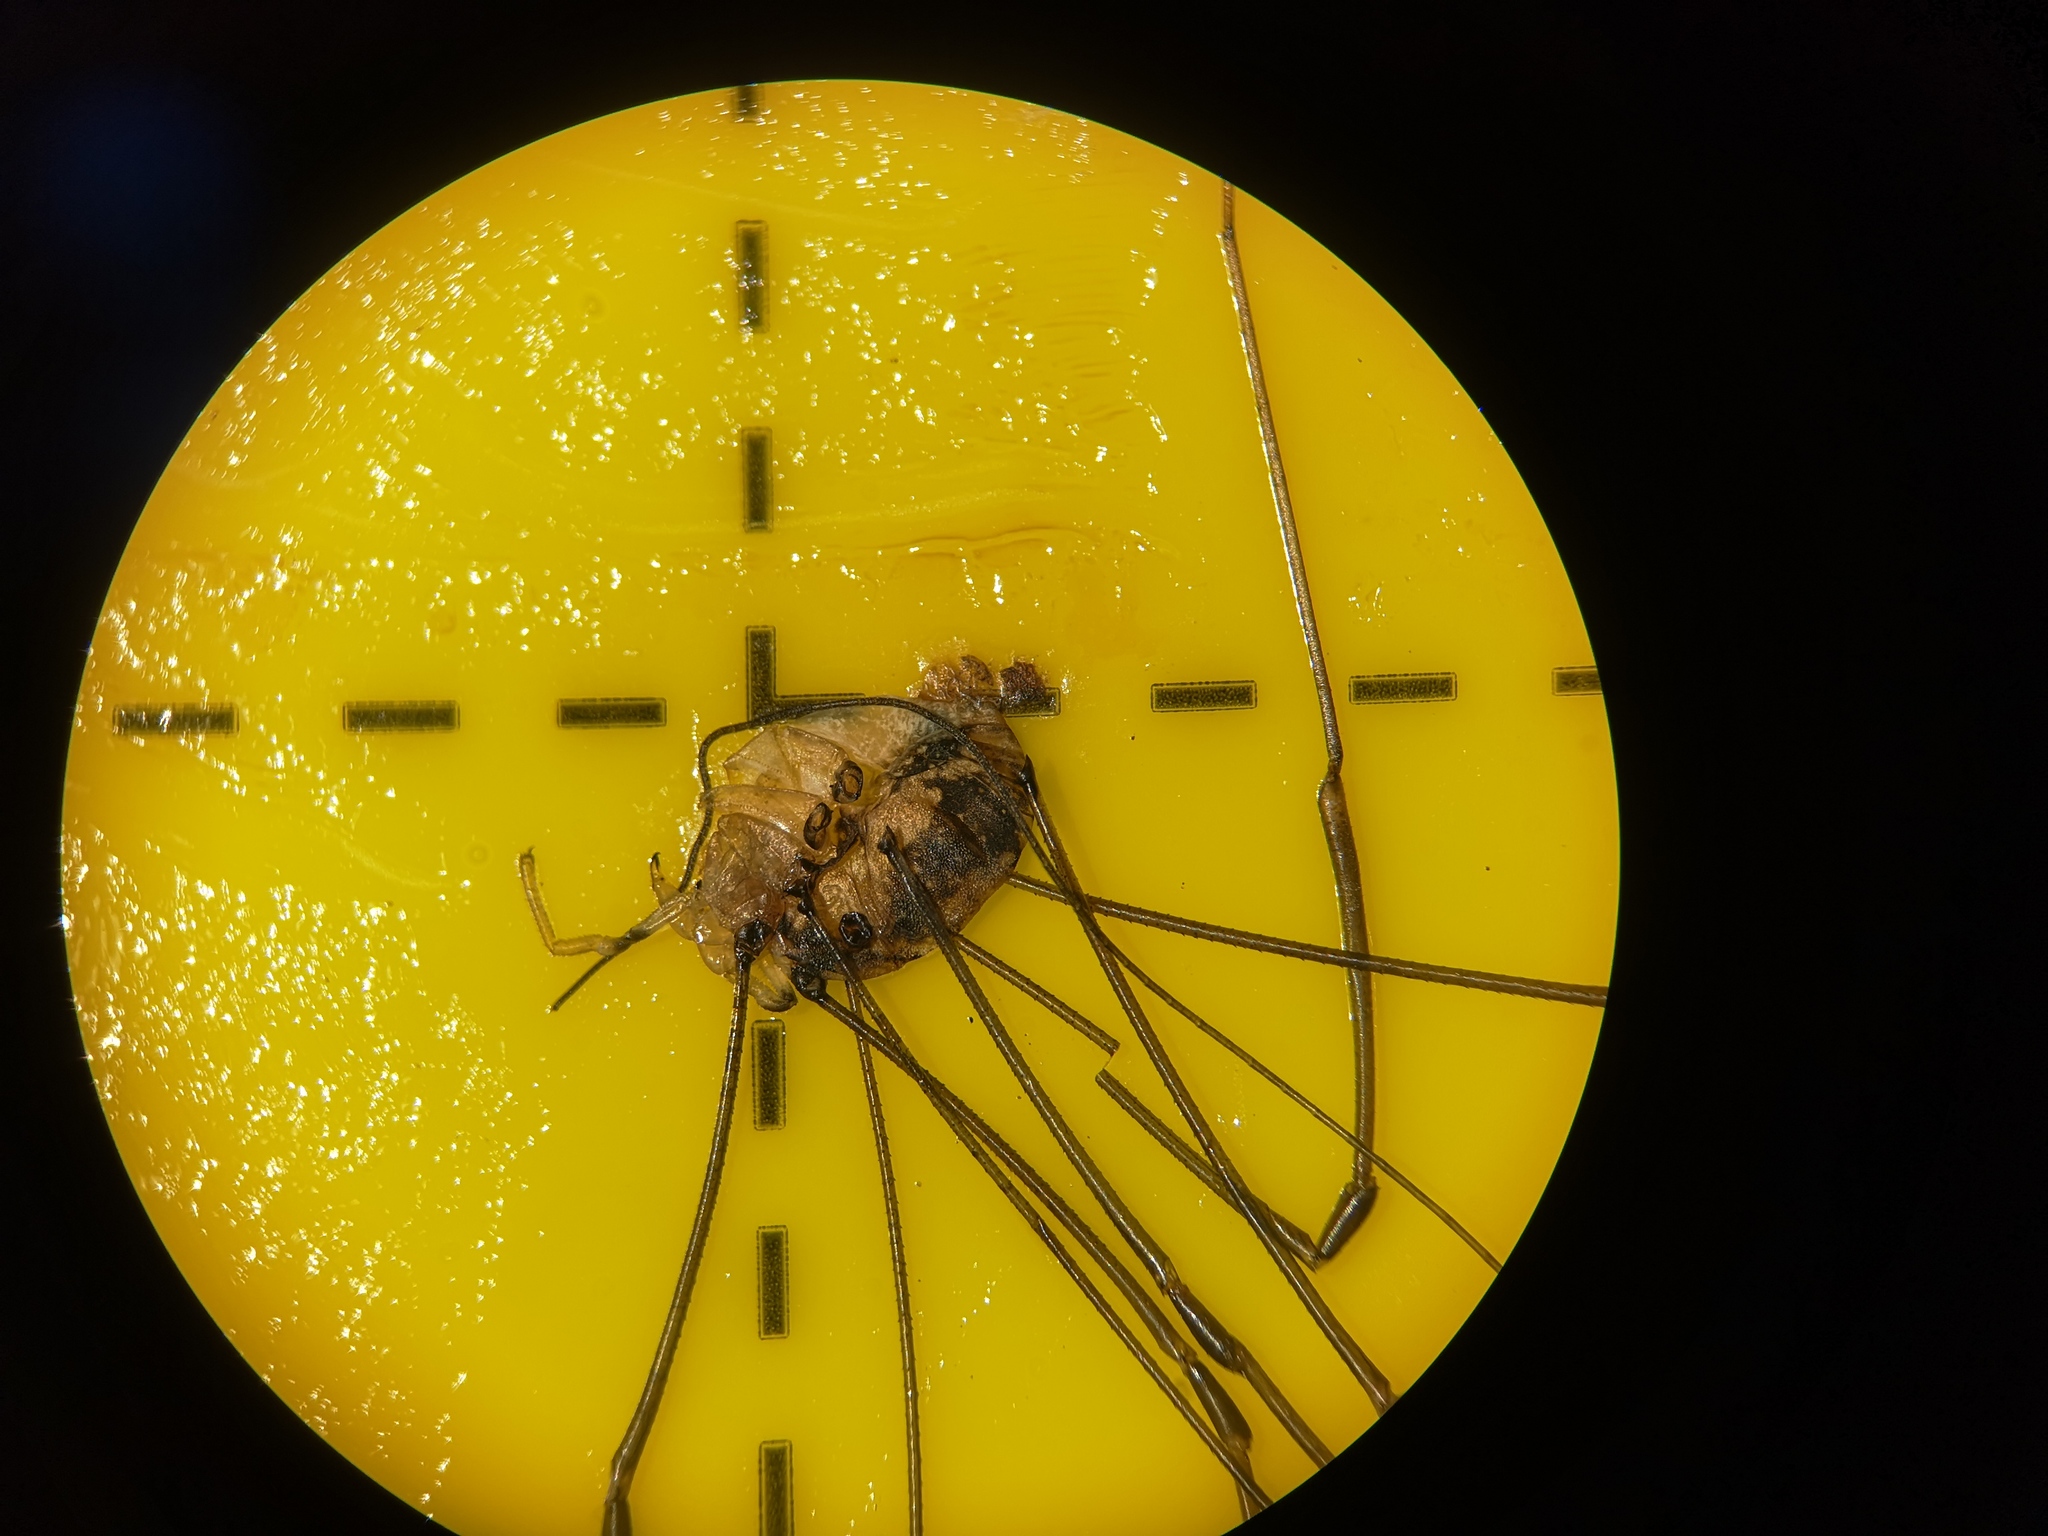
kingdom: Animalia
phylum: Arthropoda
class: Arachnida
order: Opiliones
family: Sclerosomatidae
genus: Leiobunum
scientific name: Leiobunum rotundum
